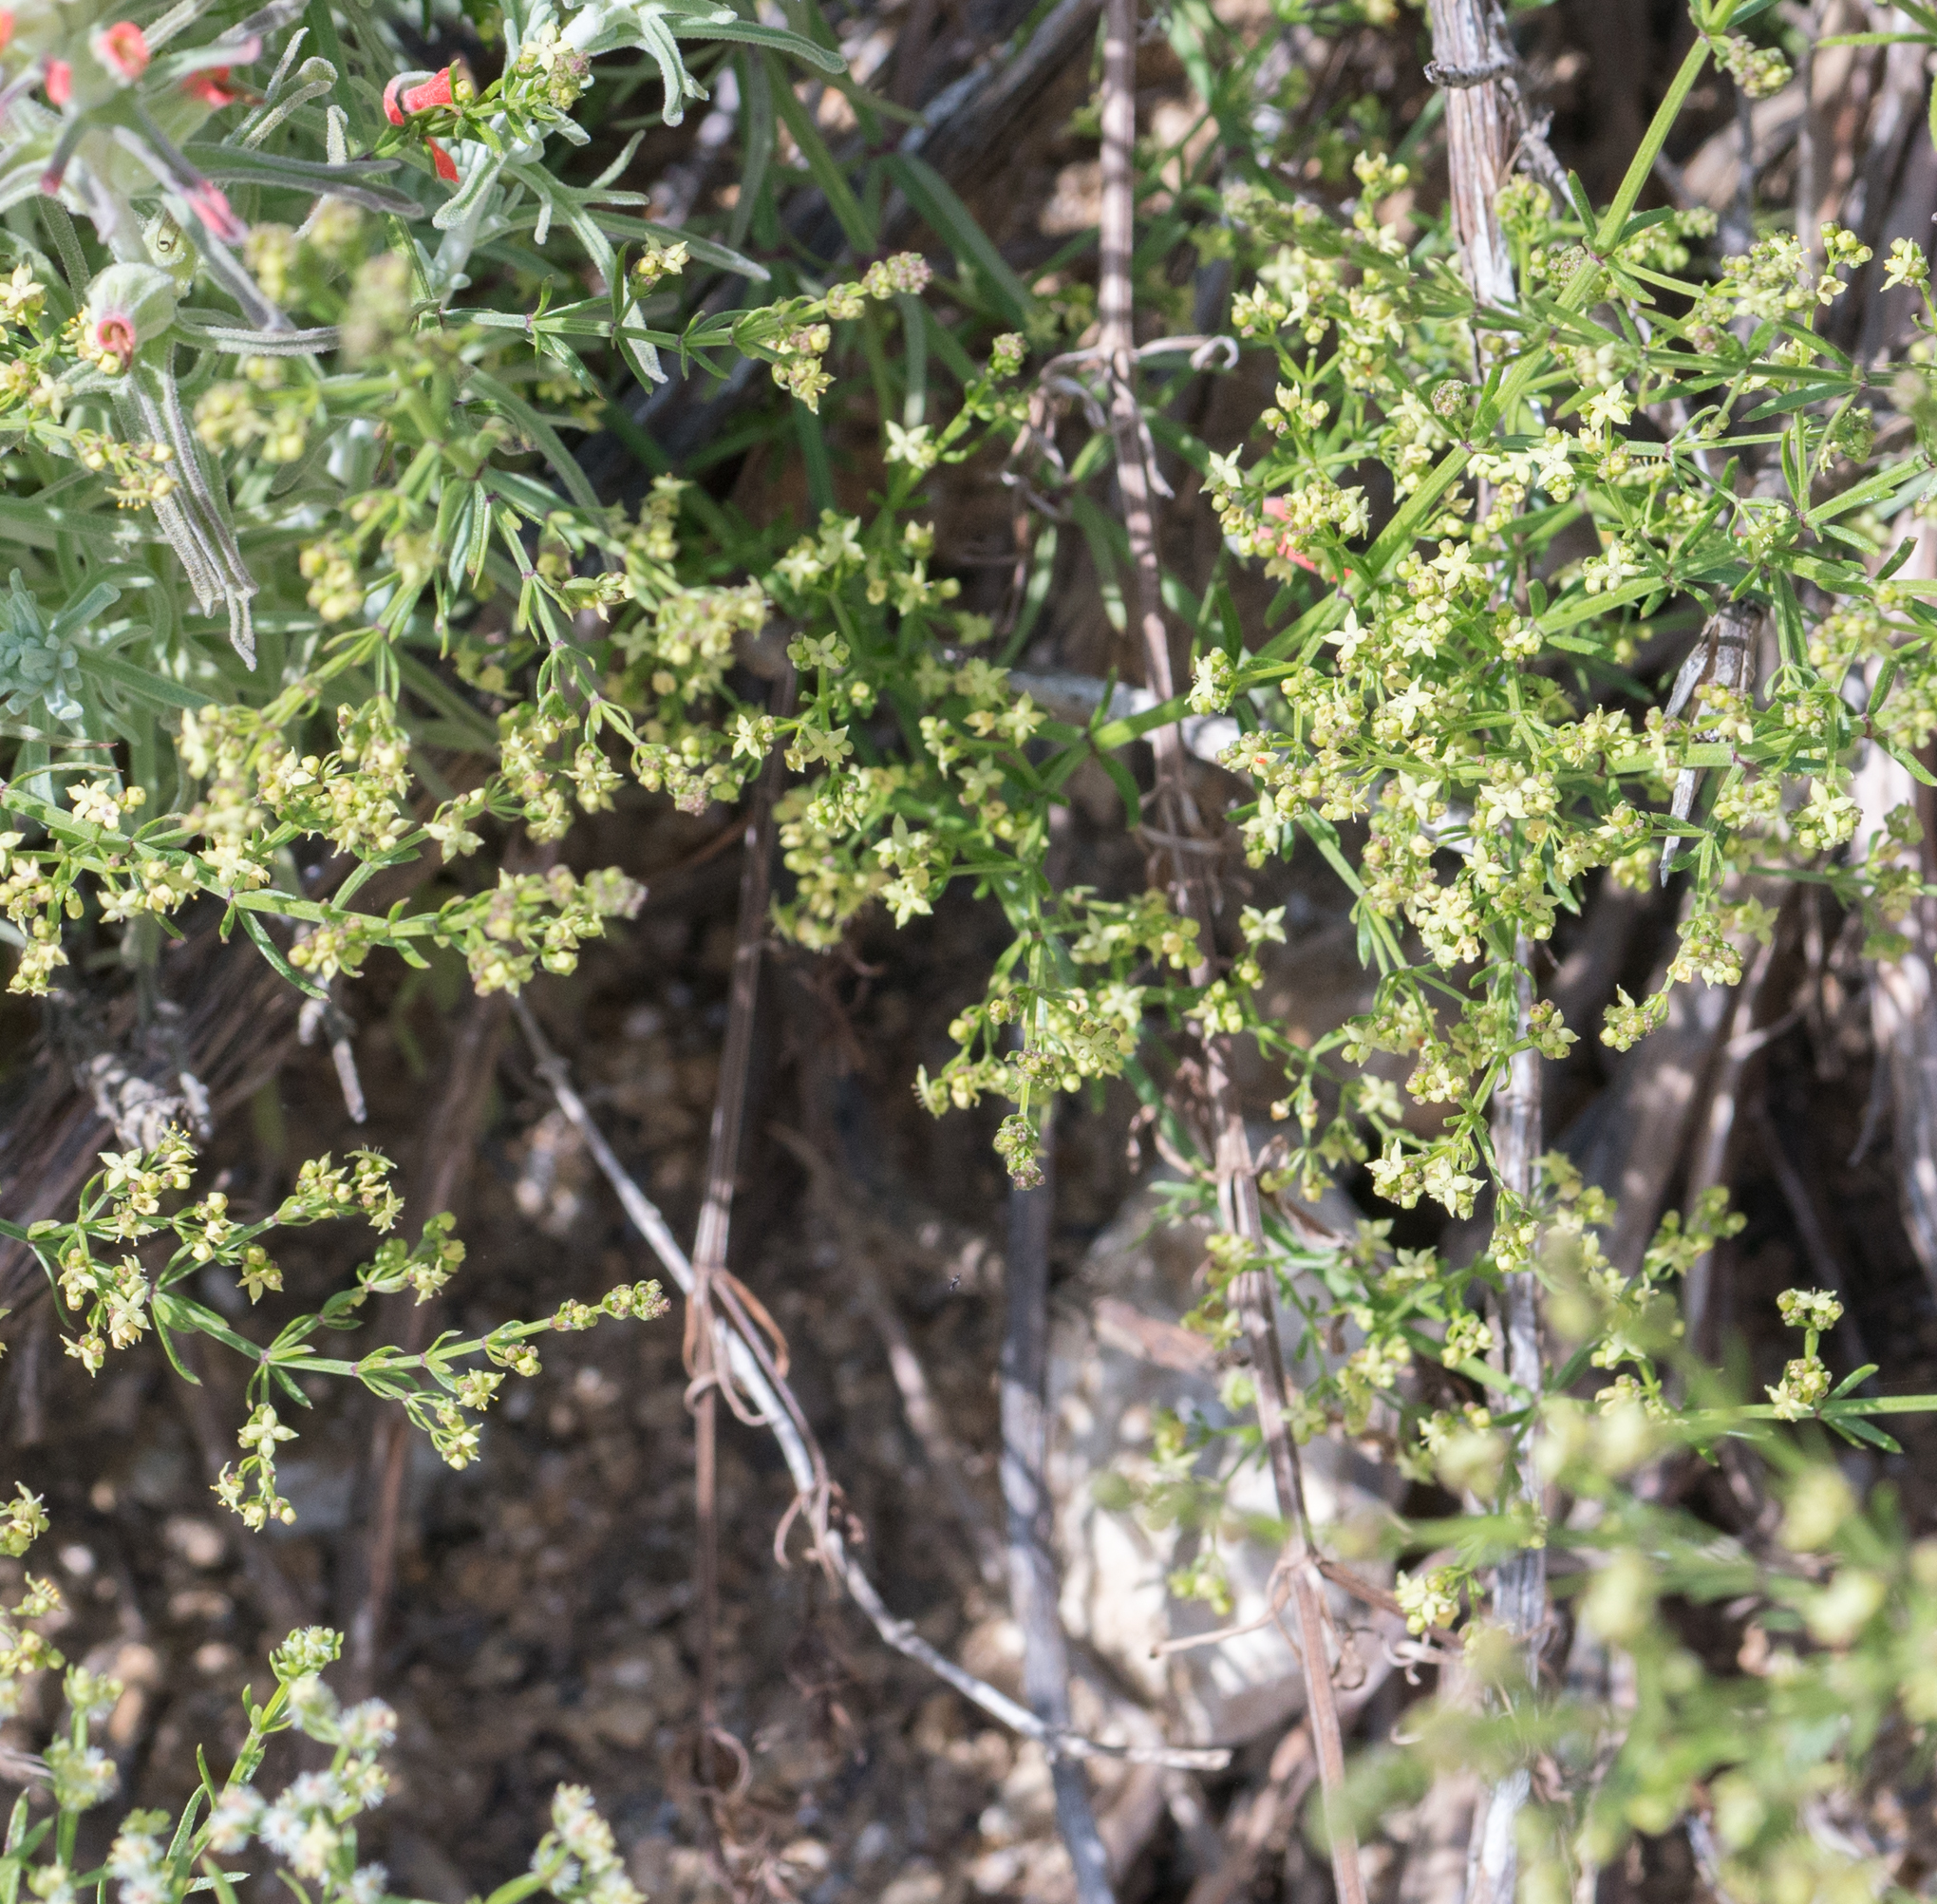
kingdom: Plantae
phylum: Tracheophyta
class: Magnoliopsida
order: Gentianales
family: Rubiaceae
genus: Galium
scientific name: Galium angustifolium
